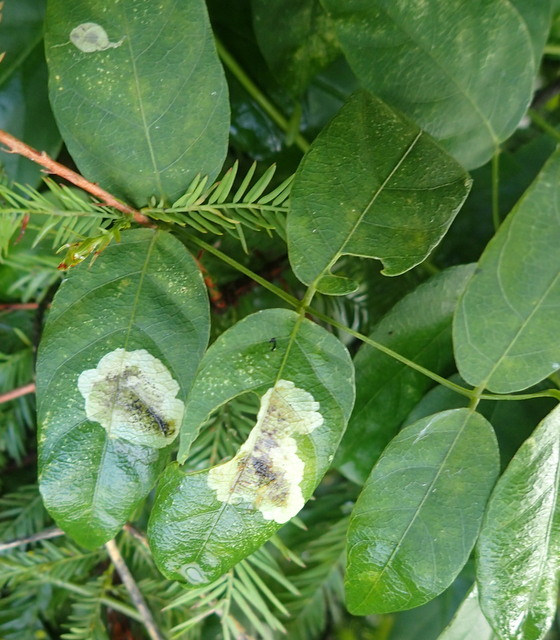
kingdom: Animalia
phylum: Arthropoda
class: Insecta
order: Lepidoptera
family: Gracillariidae
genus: Anarsioses
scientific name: Anarsioses aberrans
